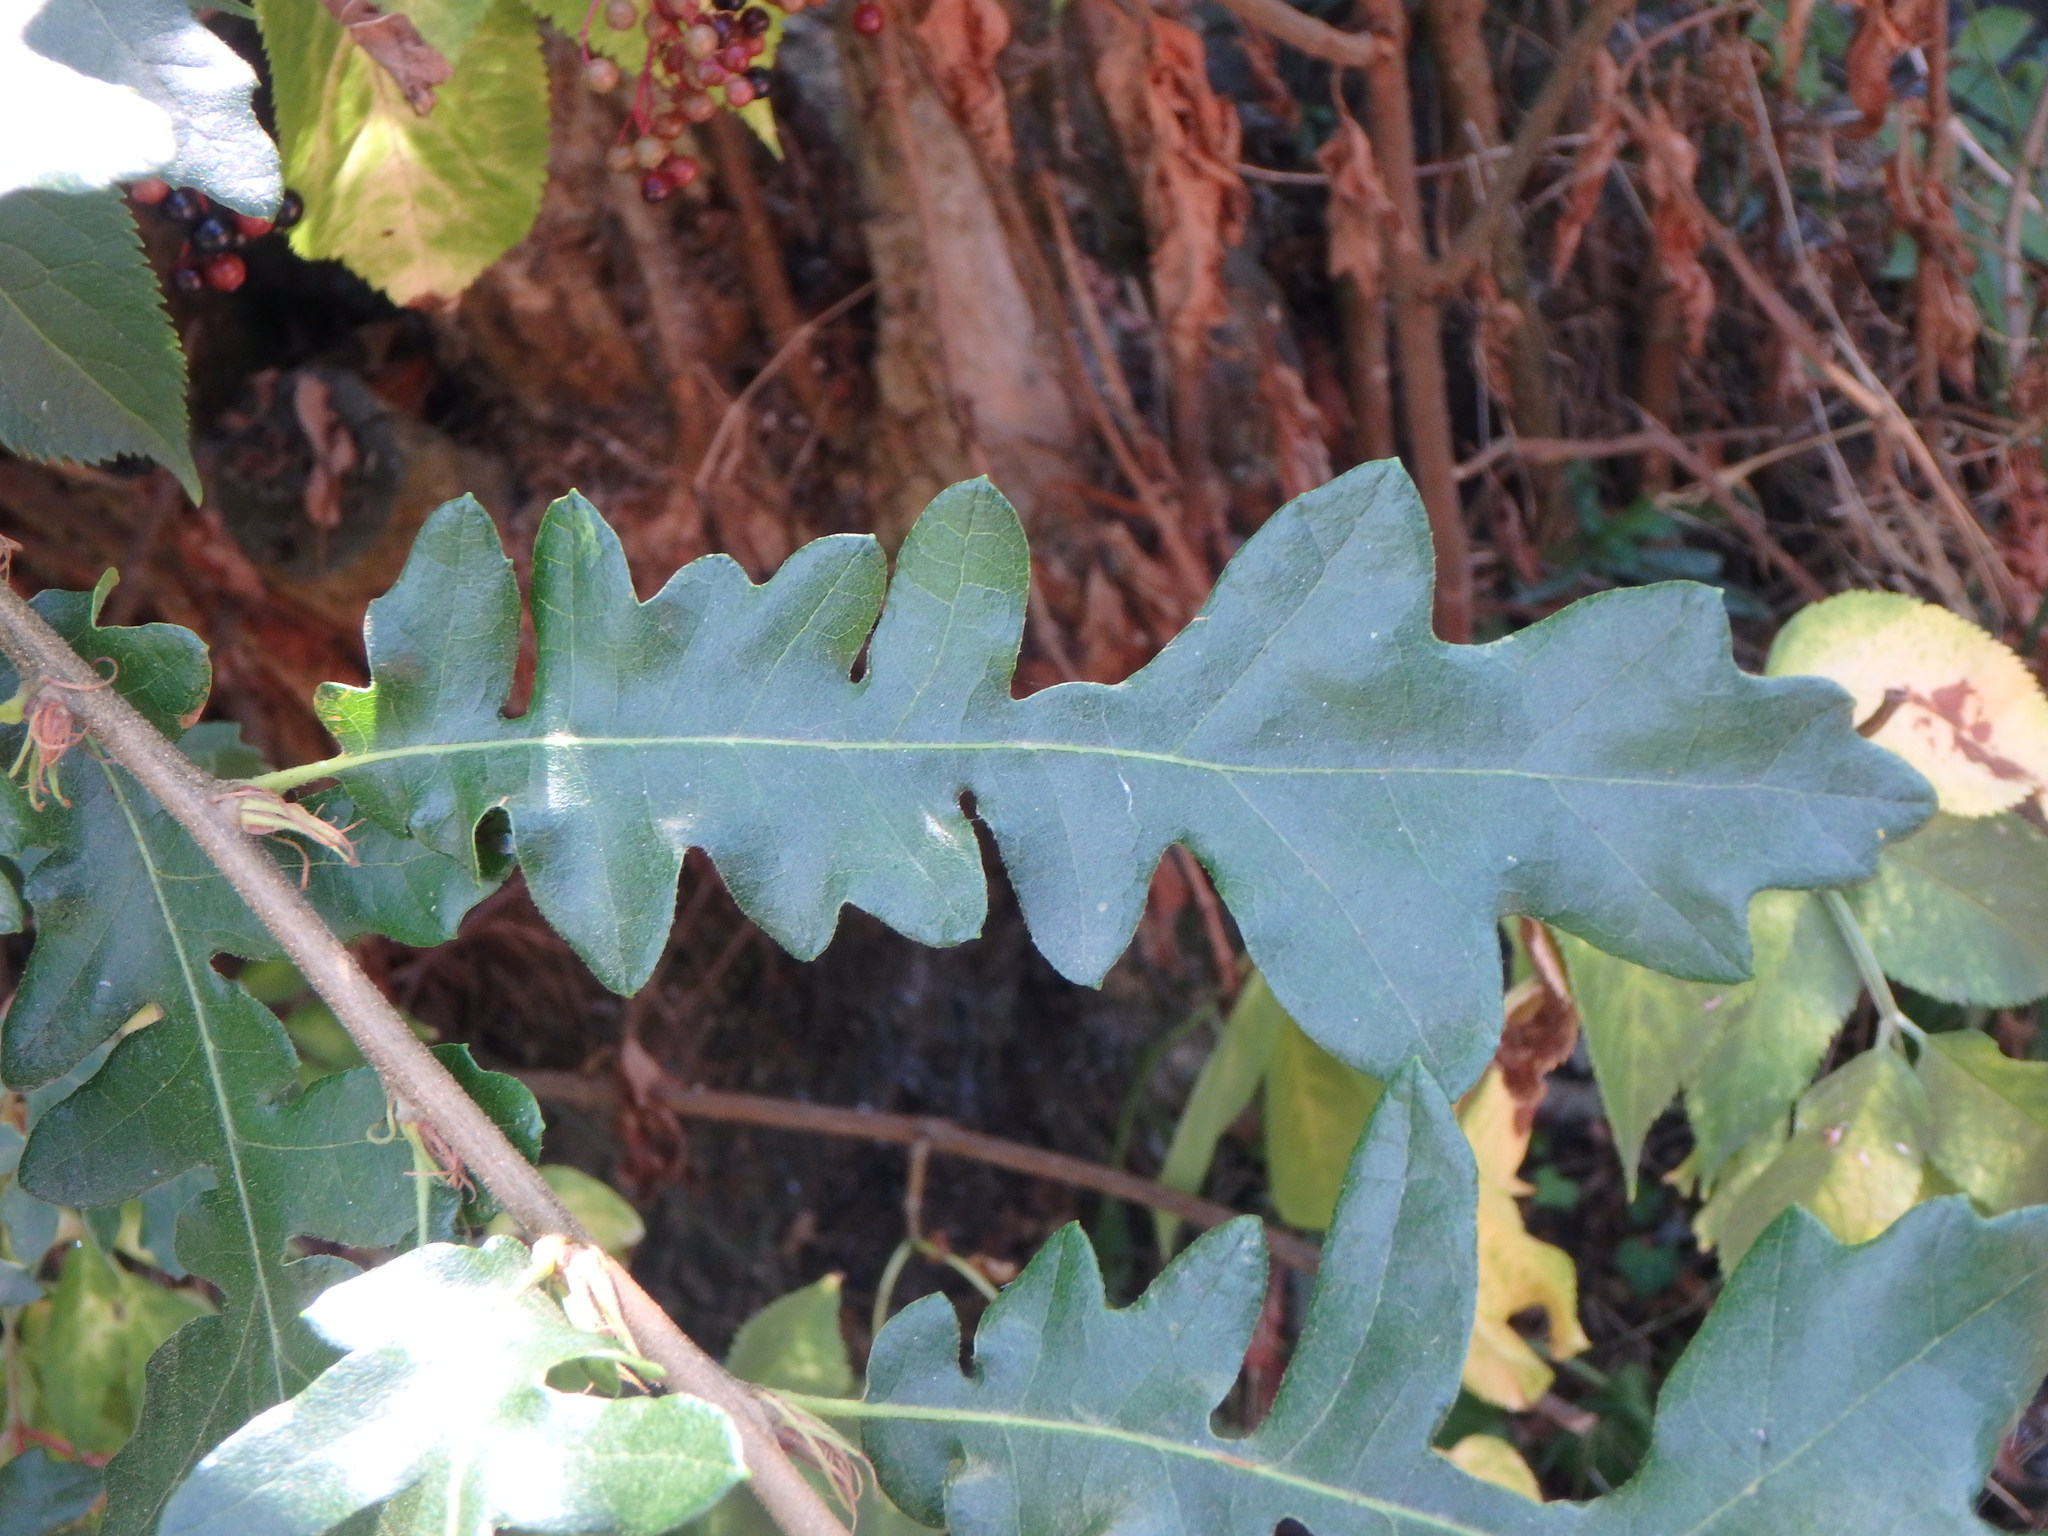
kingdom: Plantae
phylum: Tracheophyta
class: Magnoliopsida
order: Fagales
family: Fagaceae
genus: Quercus
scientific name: Quercus cerris
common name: Turkey oak
